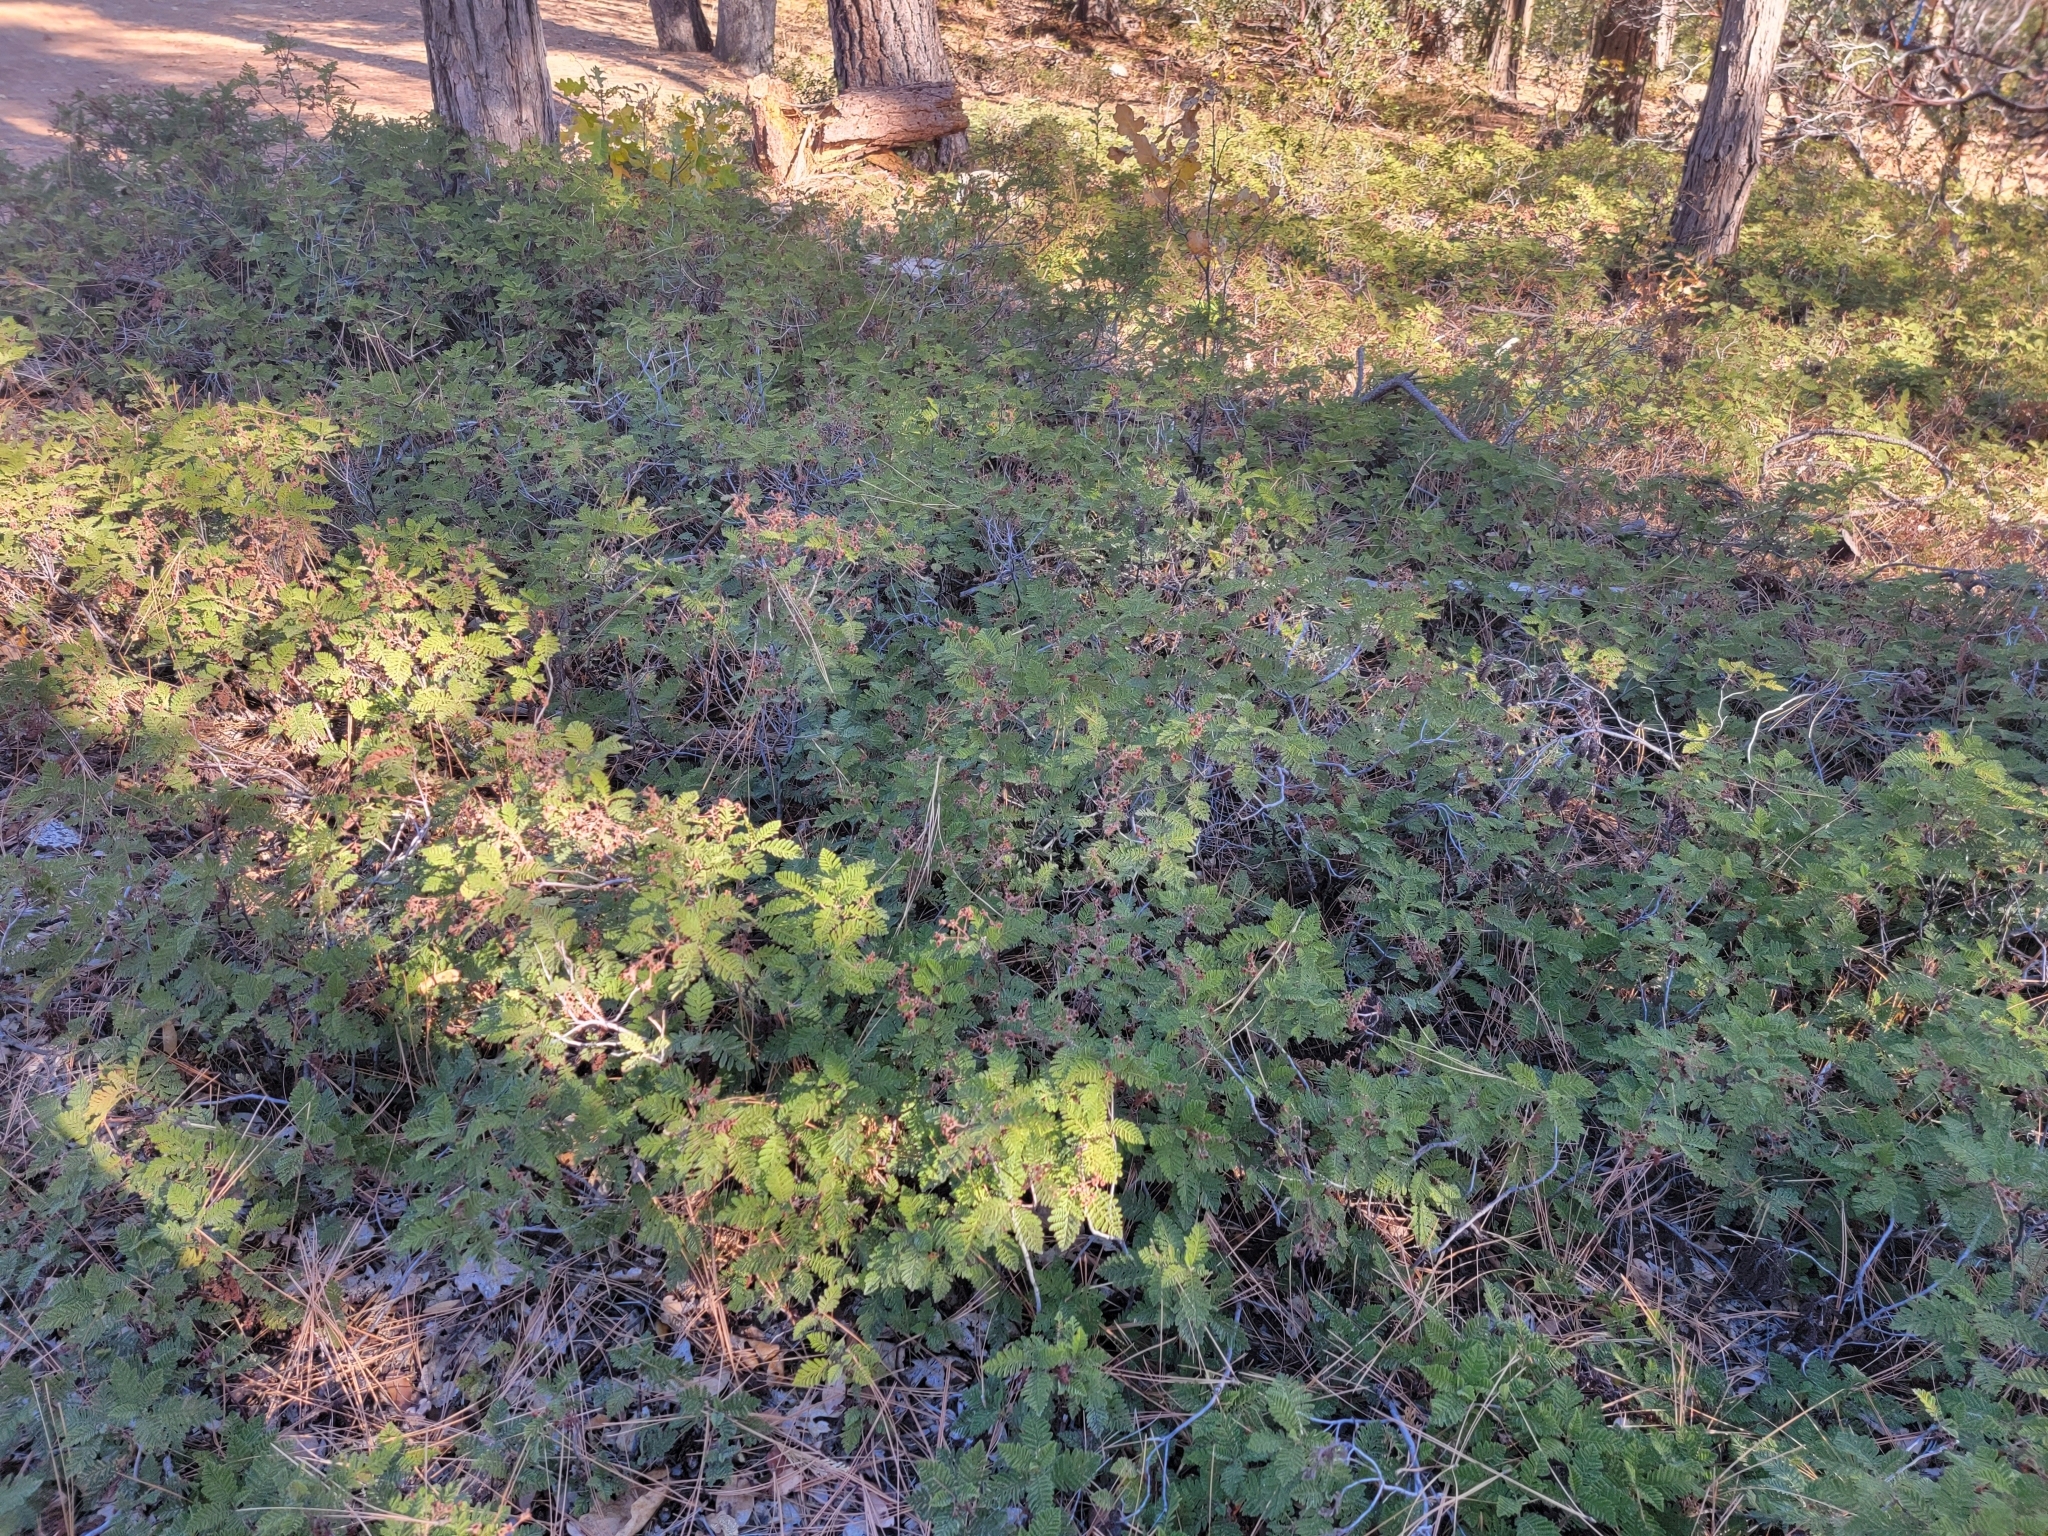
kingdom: Plantae
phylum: Tracheophyta
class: Magnoliopsida
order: Rosales
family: Rosaceae
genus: Chamaebatia
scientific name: Chamaebatia foliolosa
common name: Mountain misery
